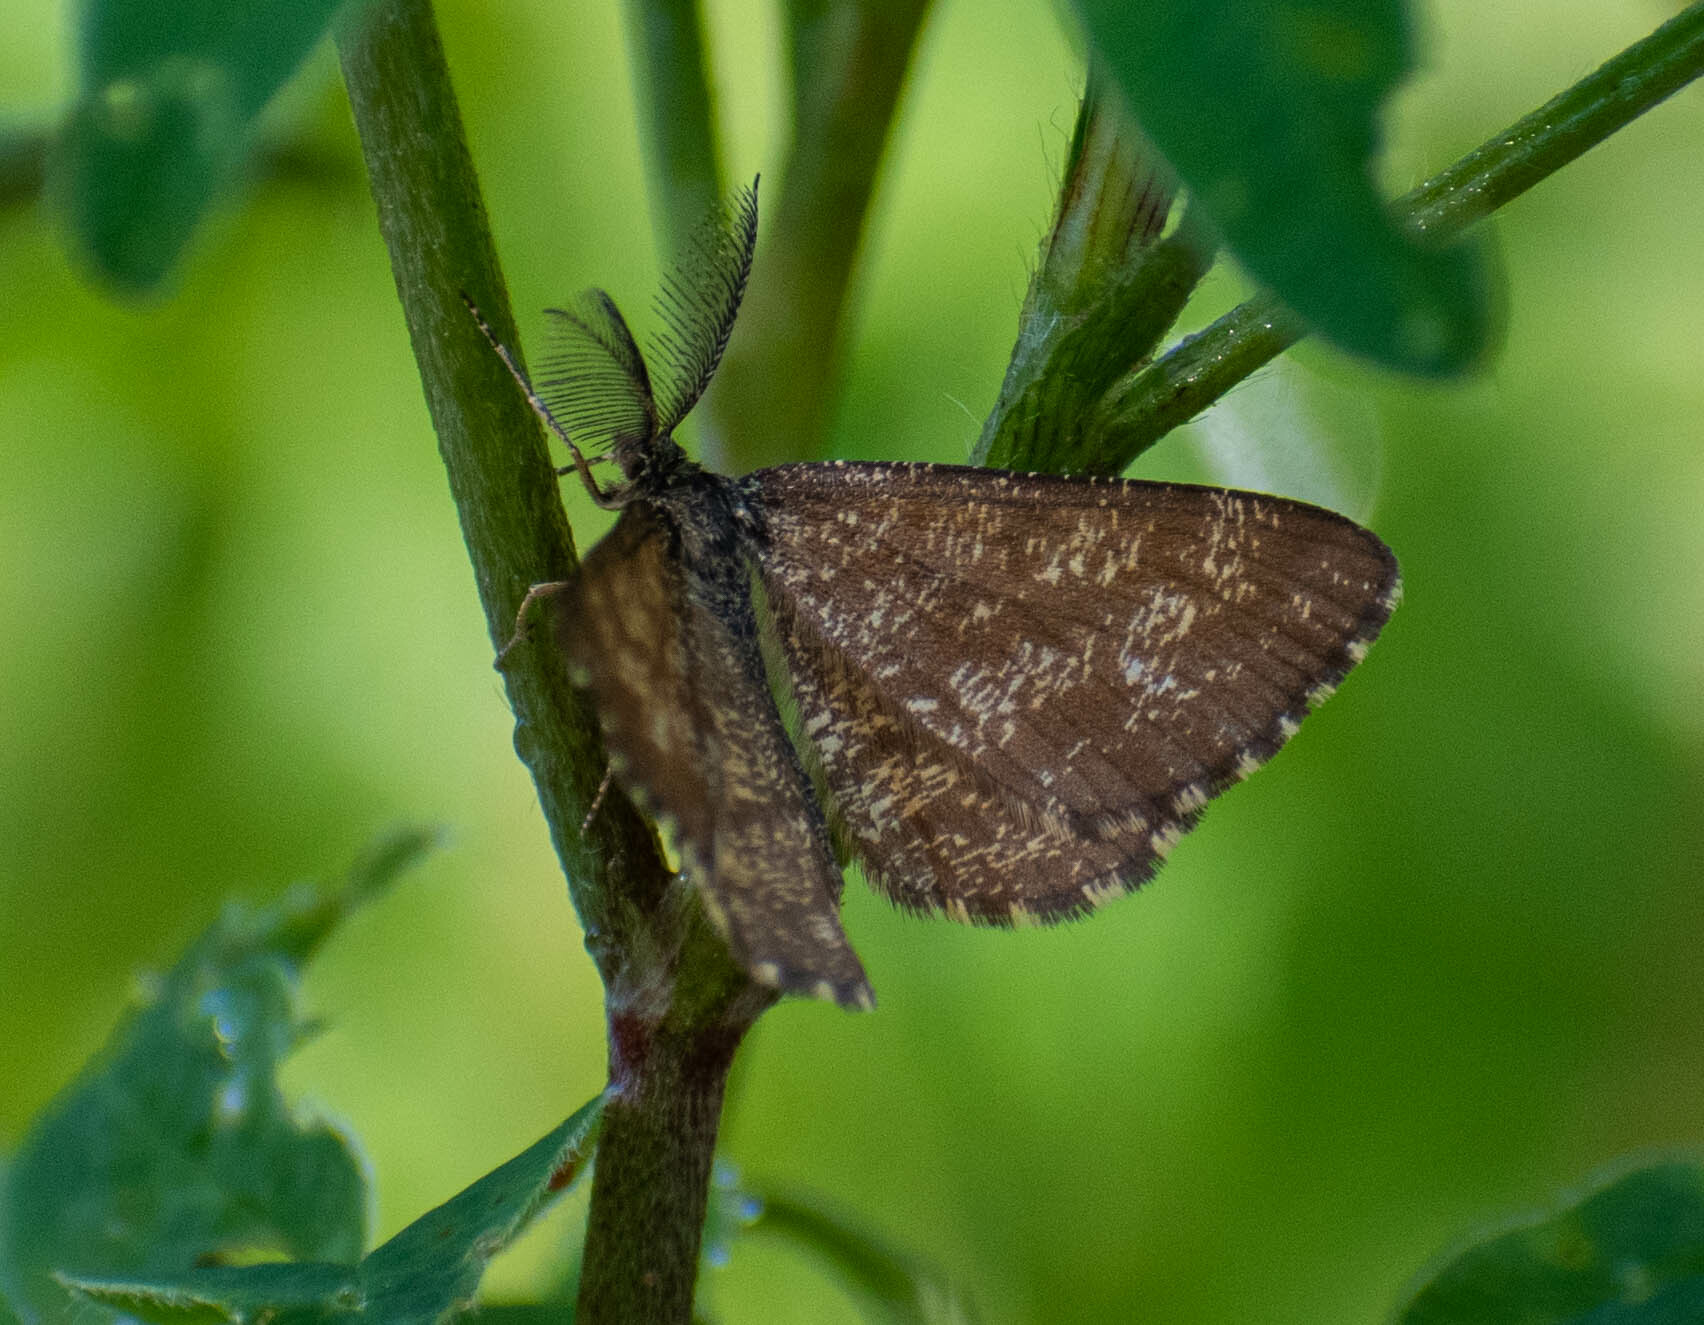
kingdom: Animalia
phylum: Arthropoda
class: Insecta
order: Lepidoptera
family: Geometridae
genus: Ematurga
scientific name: Ematurga atomaria
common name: Common heath
